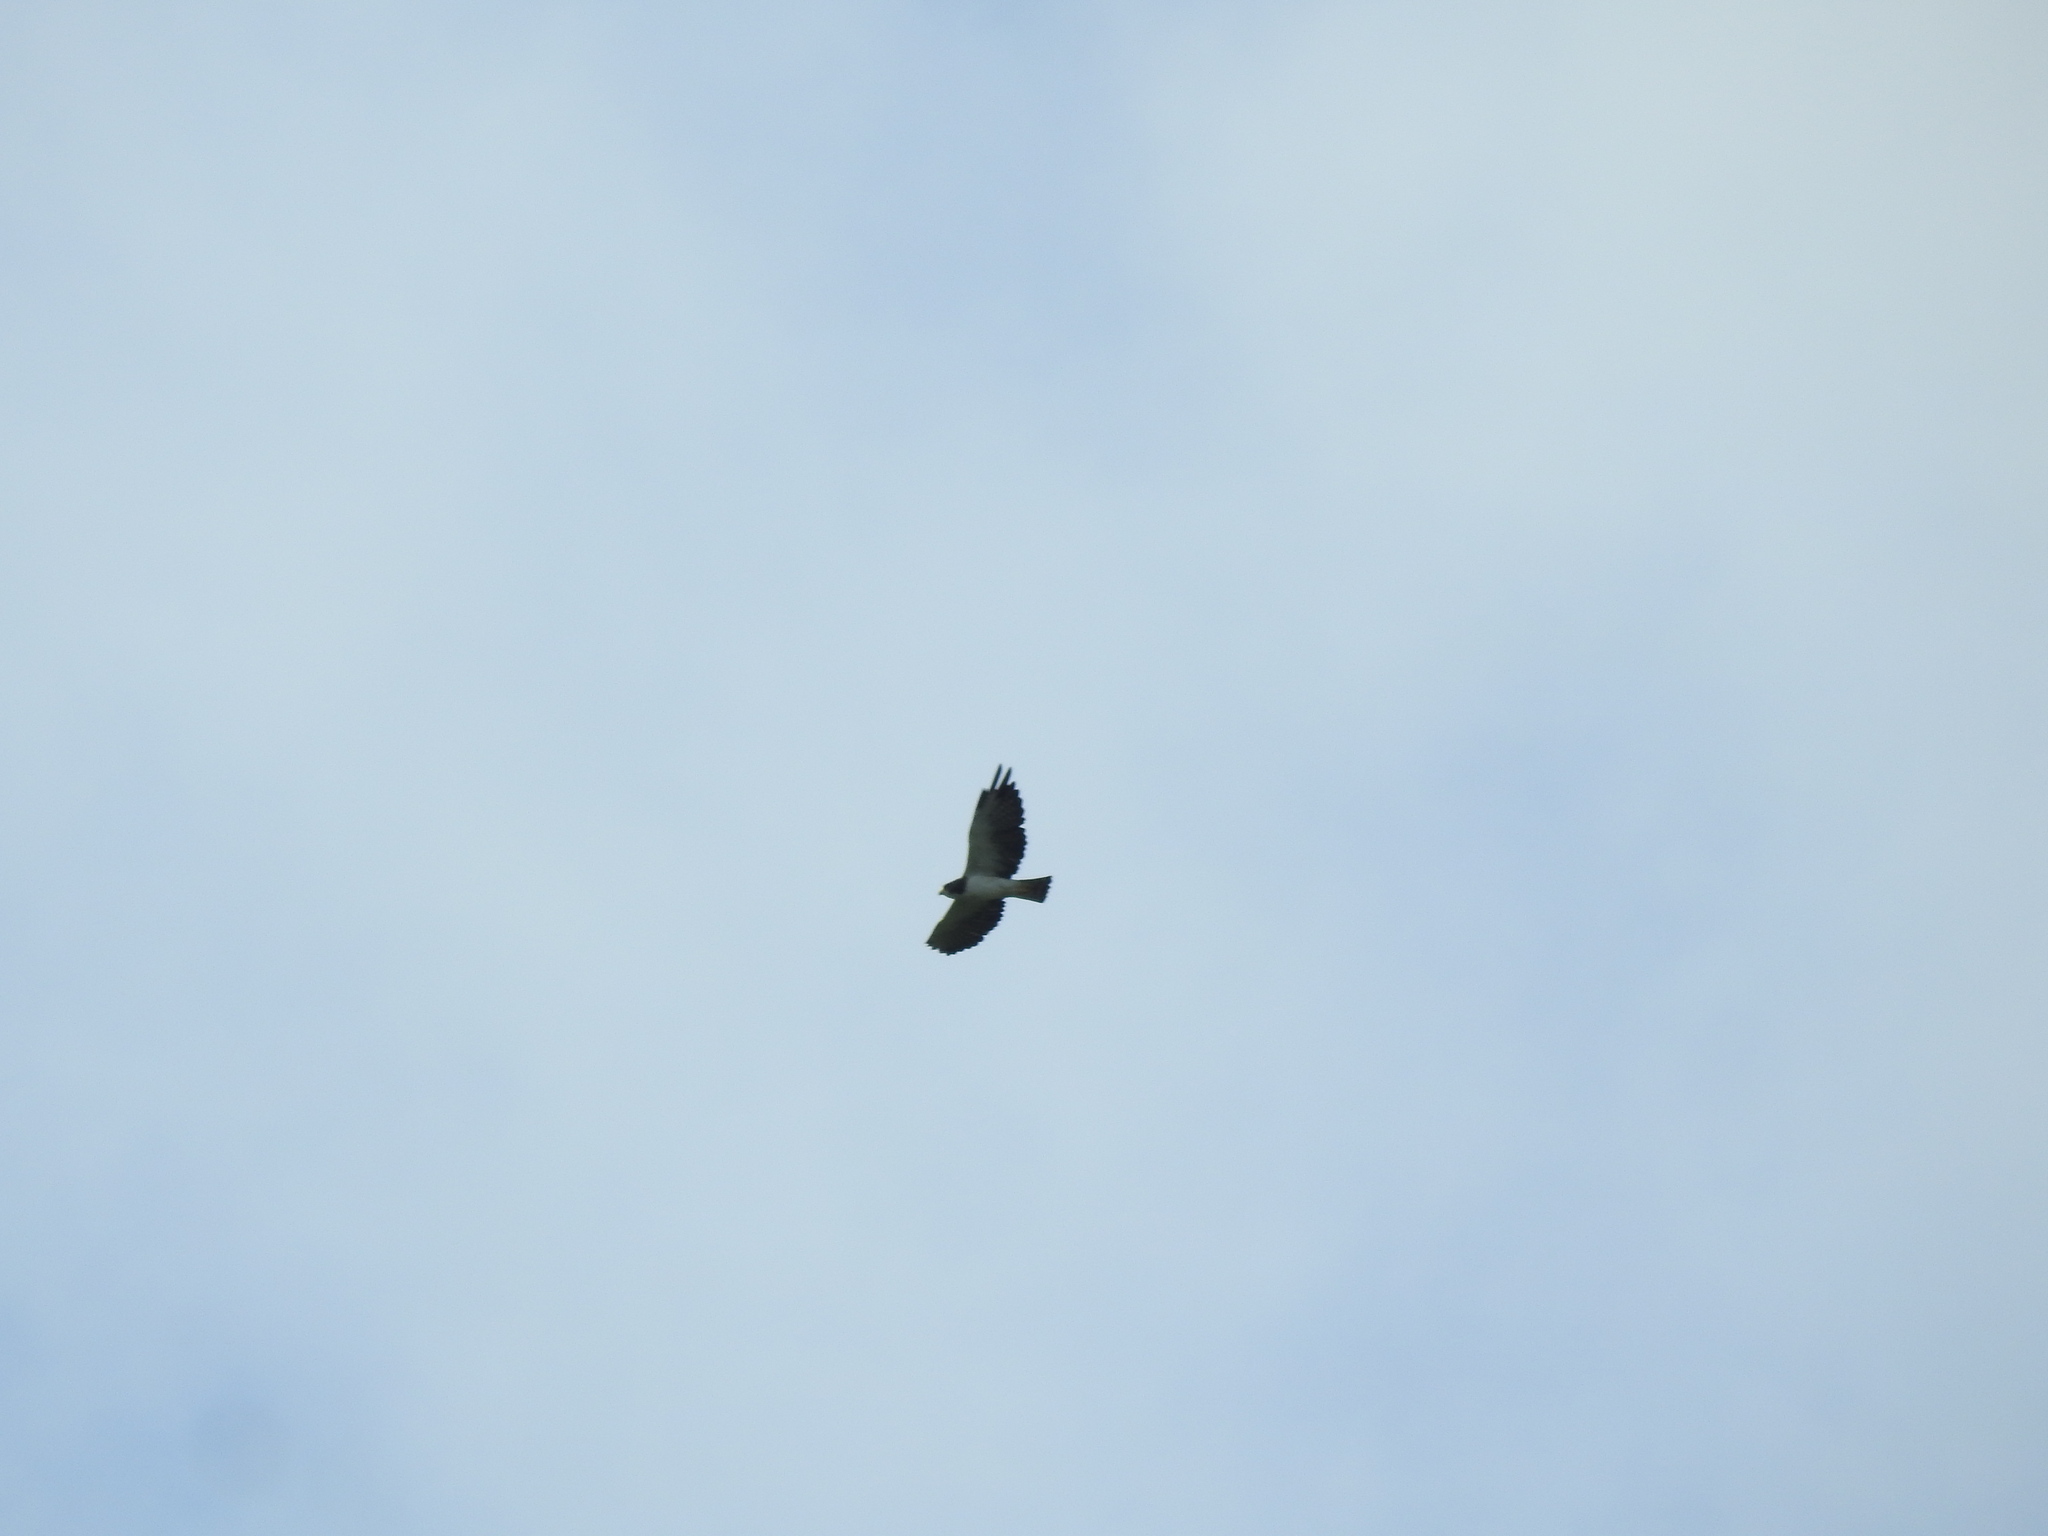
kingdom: Animalia
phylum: Chordata
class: Aves
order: Accipitriformes
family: Accipitridae
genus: Buteo
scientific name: Buteo brachyurus
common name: Short-tailed hawk
